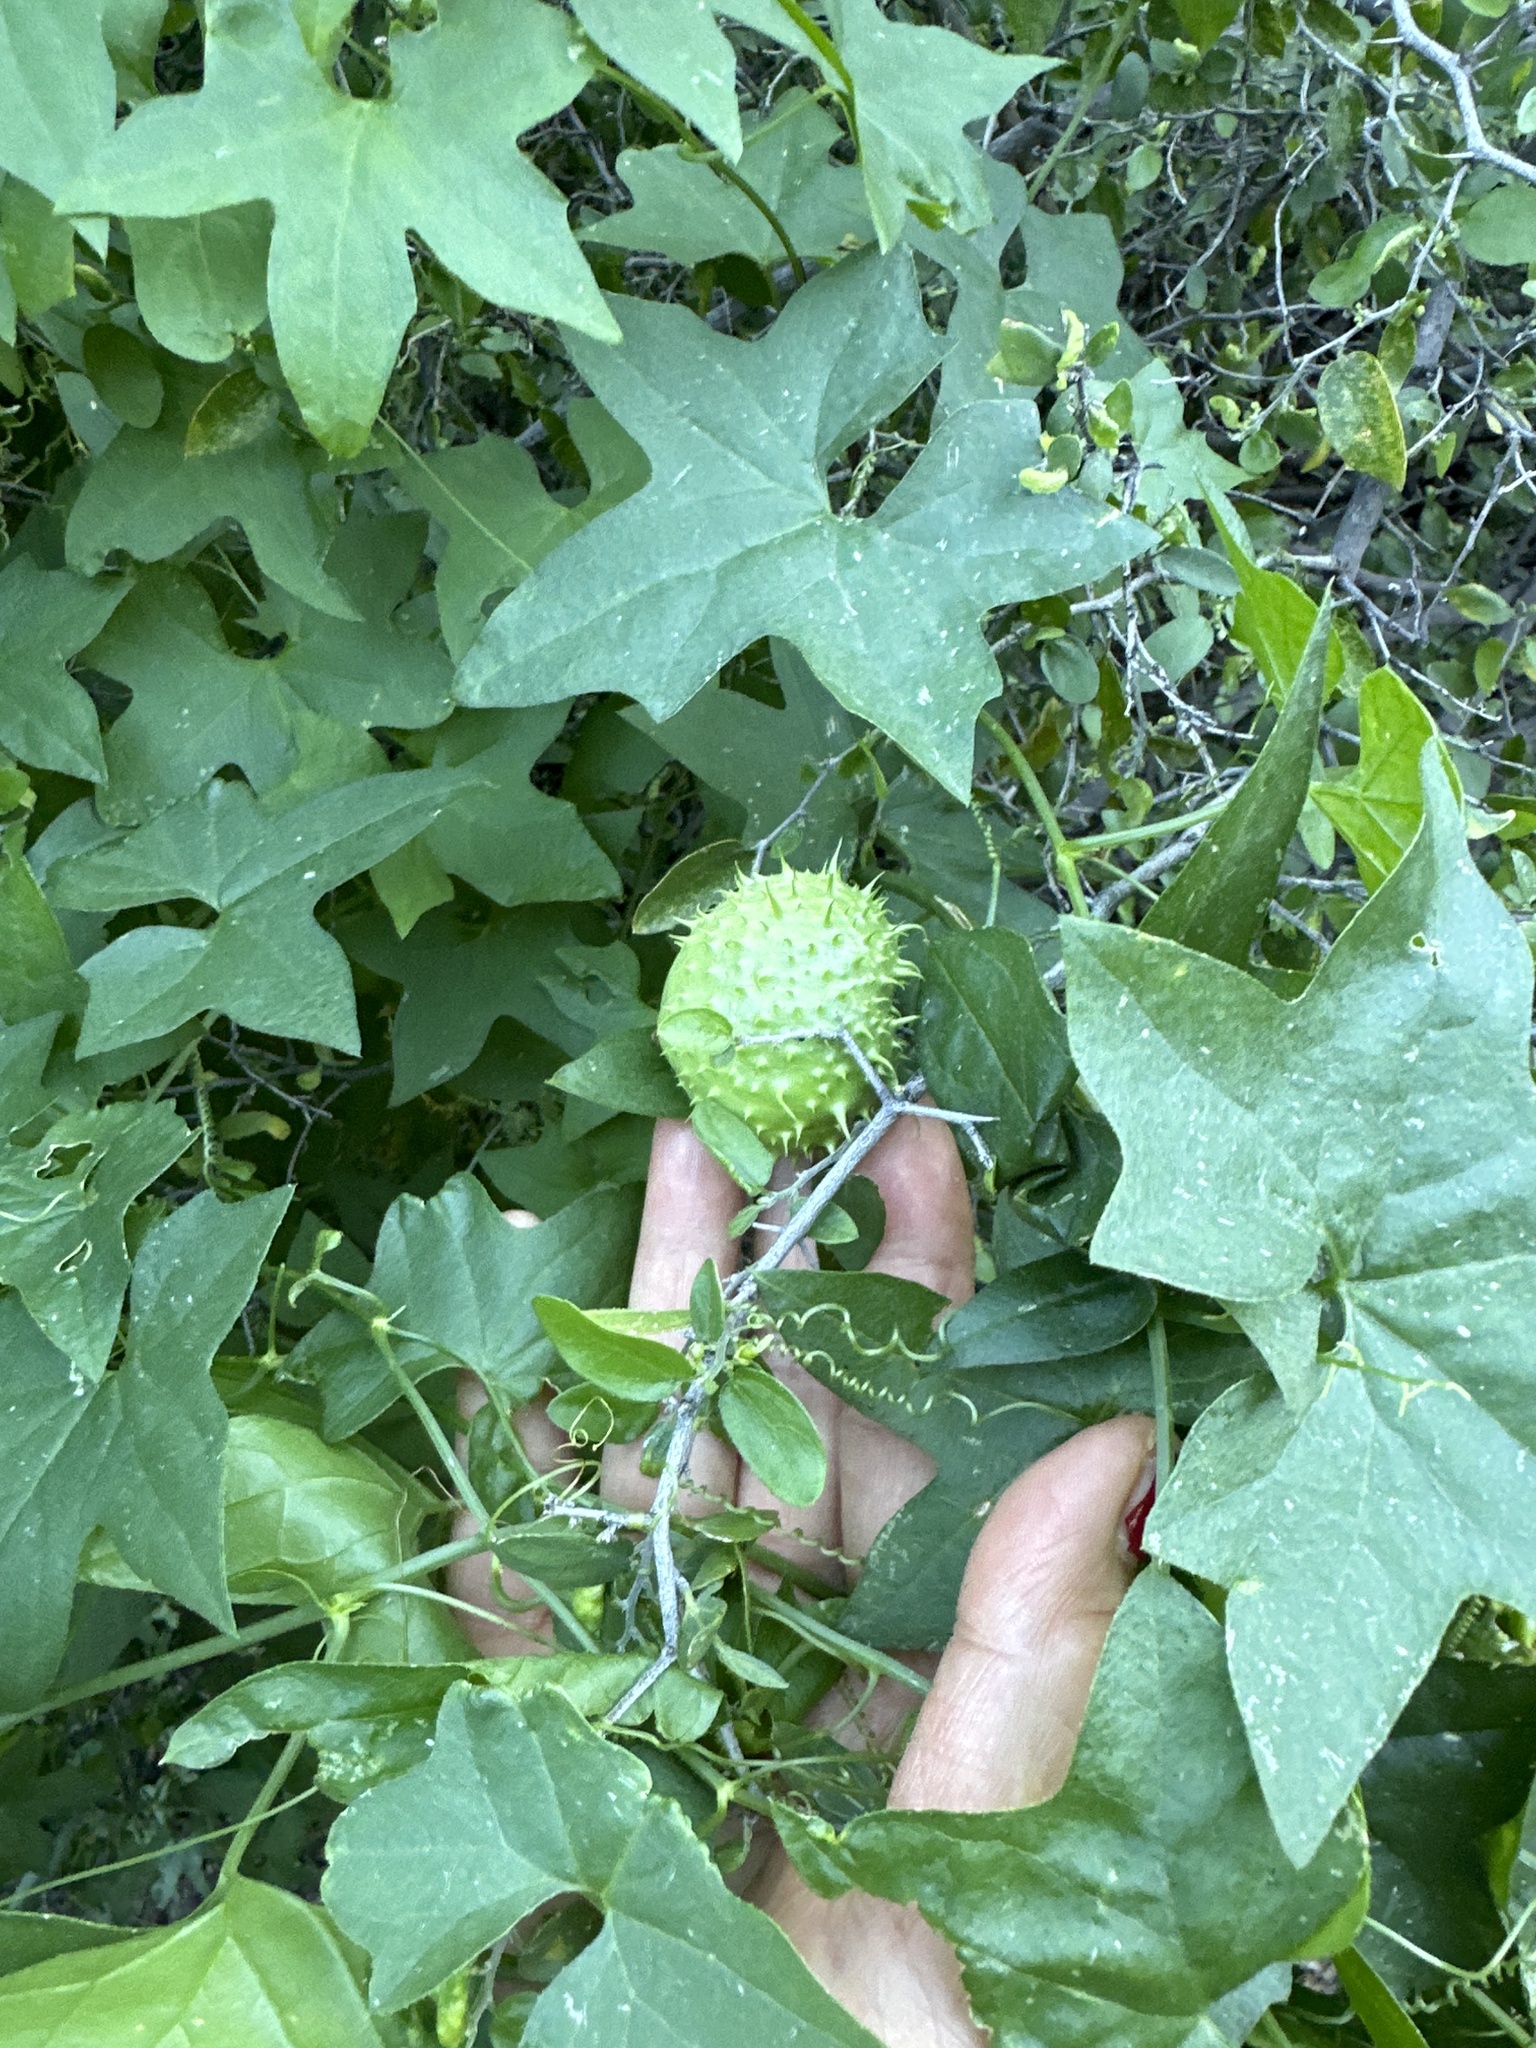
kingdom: Plantae
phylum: Tracheophyta
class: Magnoliopsida
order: Cucurbitales
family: Cucurbitaceae
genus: Marah
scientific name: Marah gilensis
